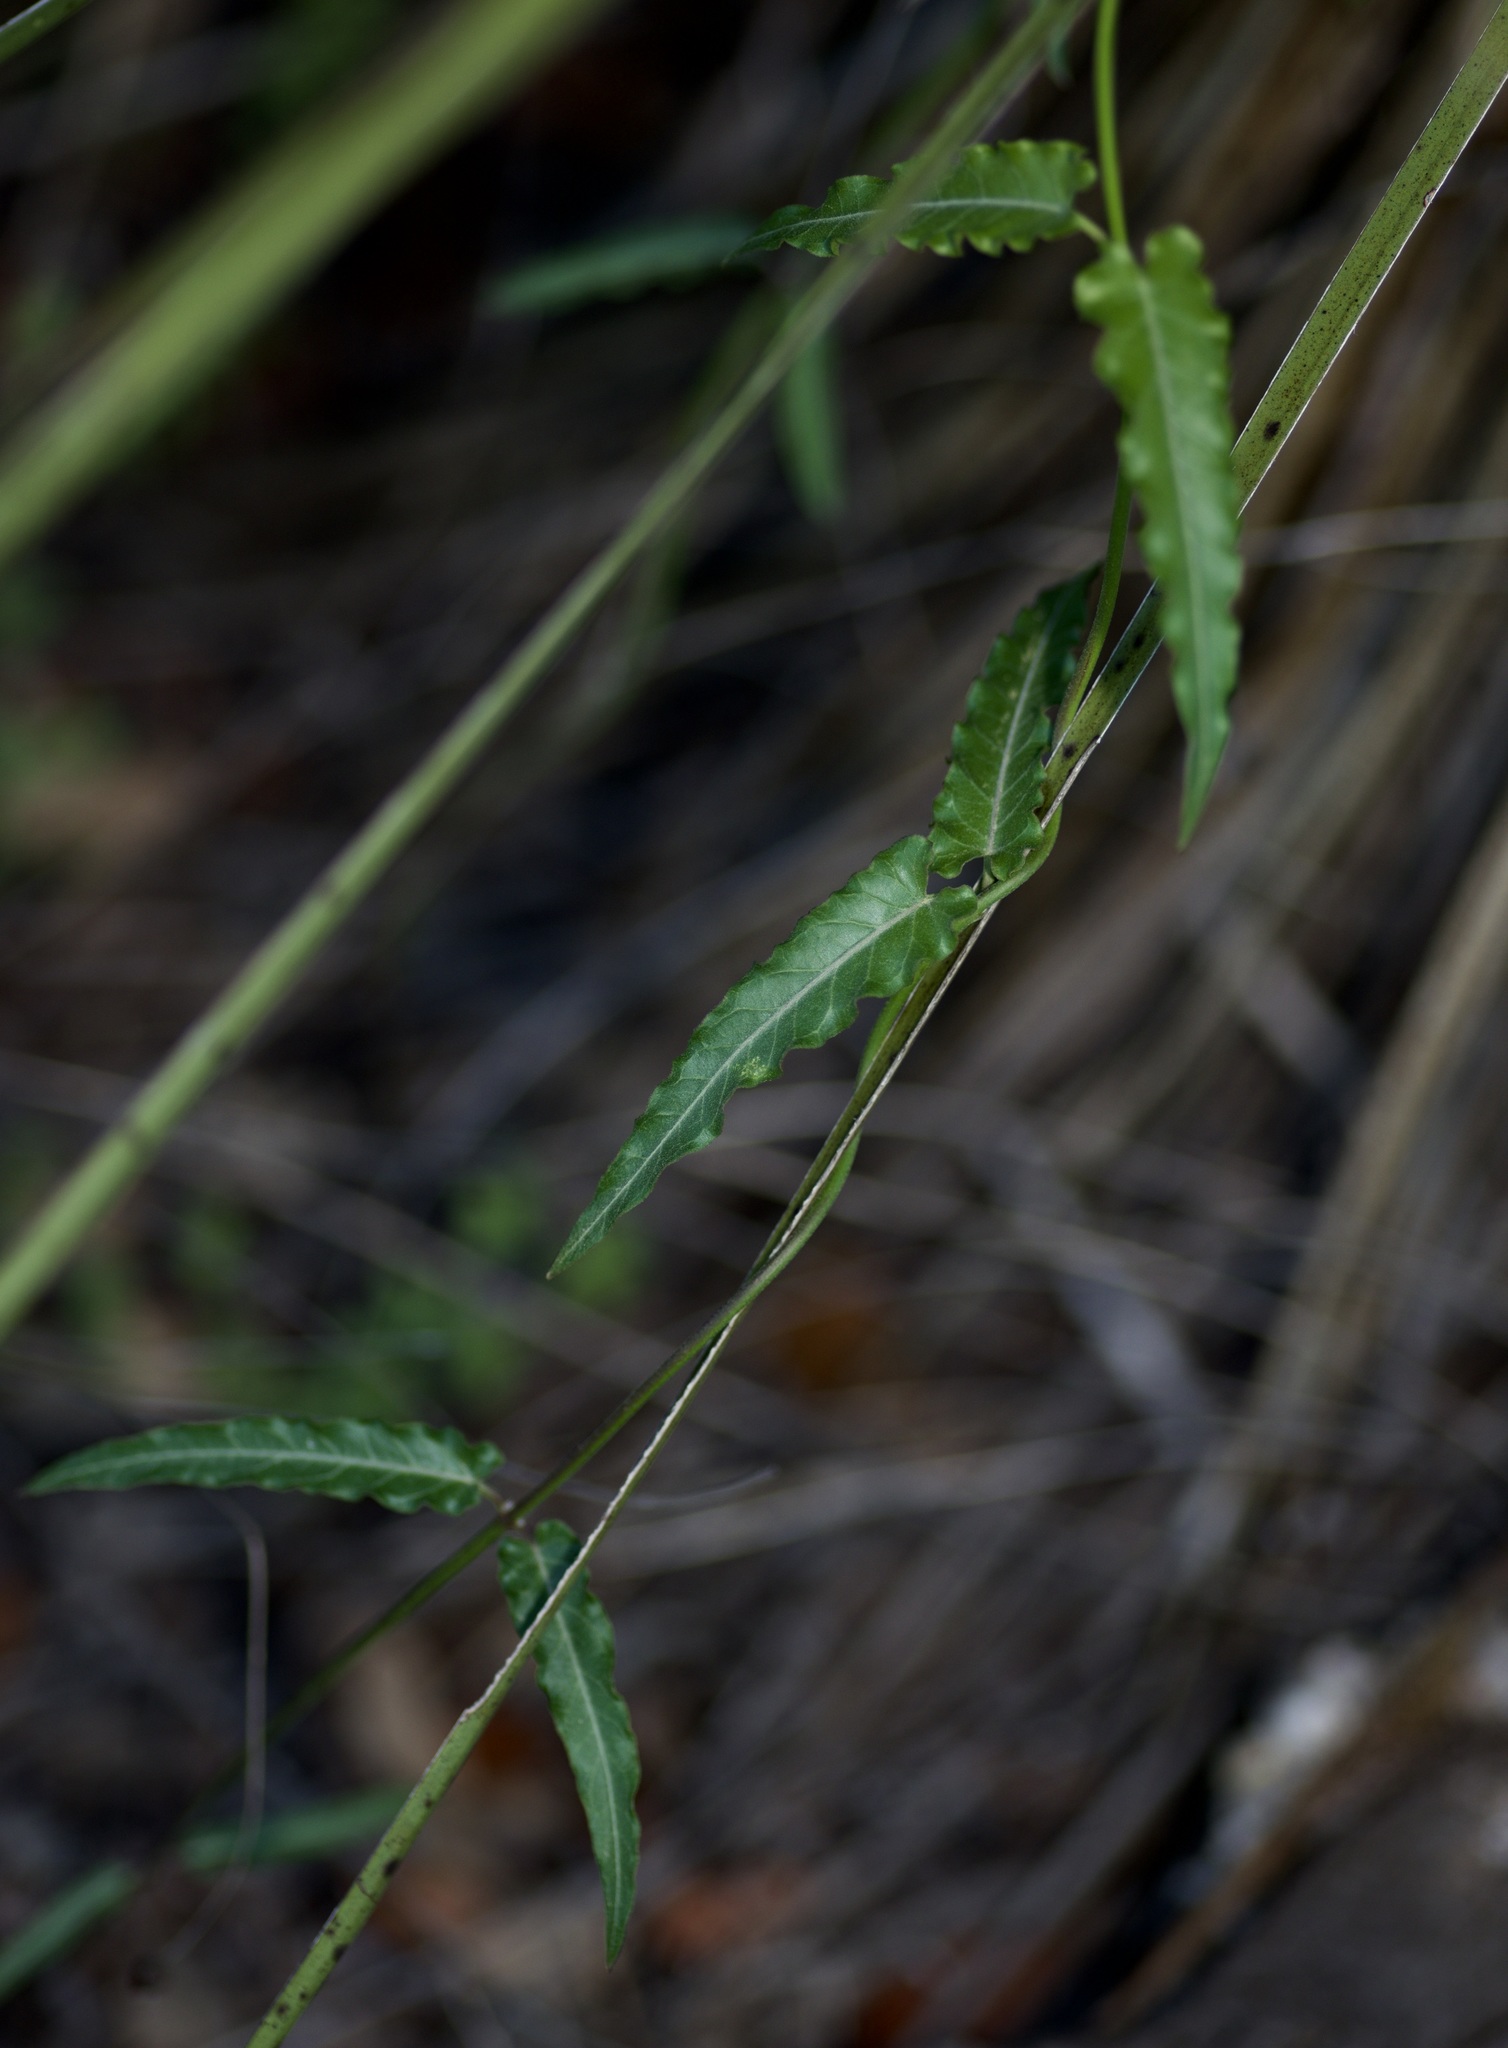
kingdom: Plantae
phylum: Tracheophyta
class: Magnoliopsida
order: Gentianales
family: Apocynaceae
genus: Funastrum
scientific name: Funastrum crispum
